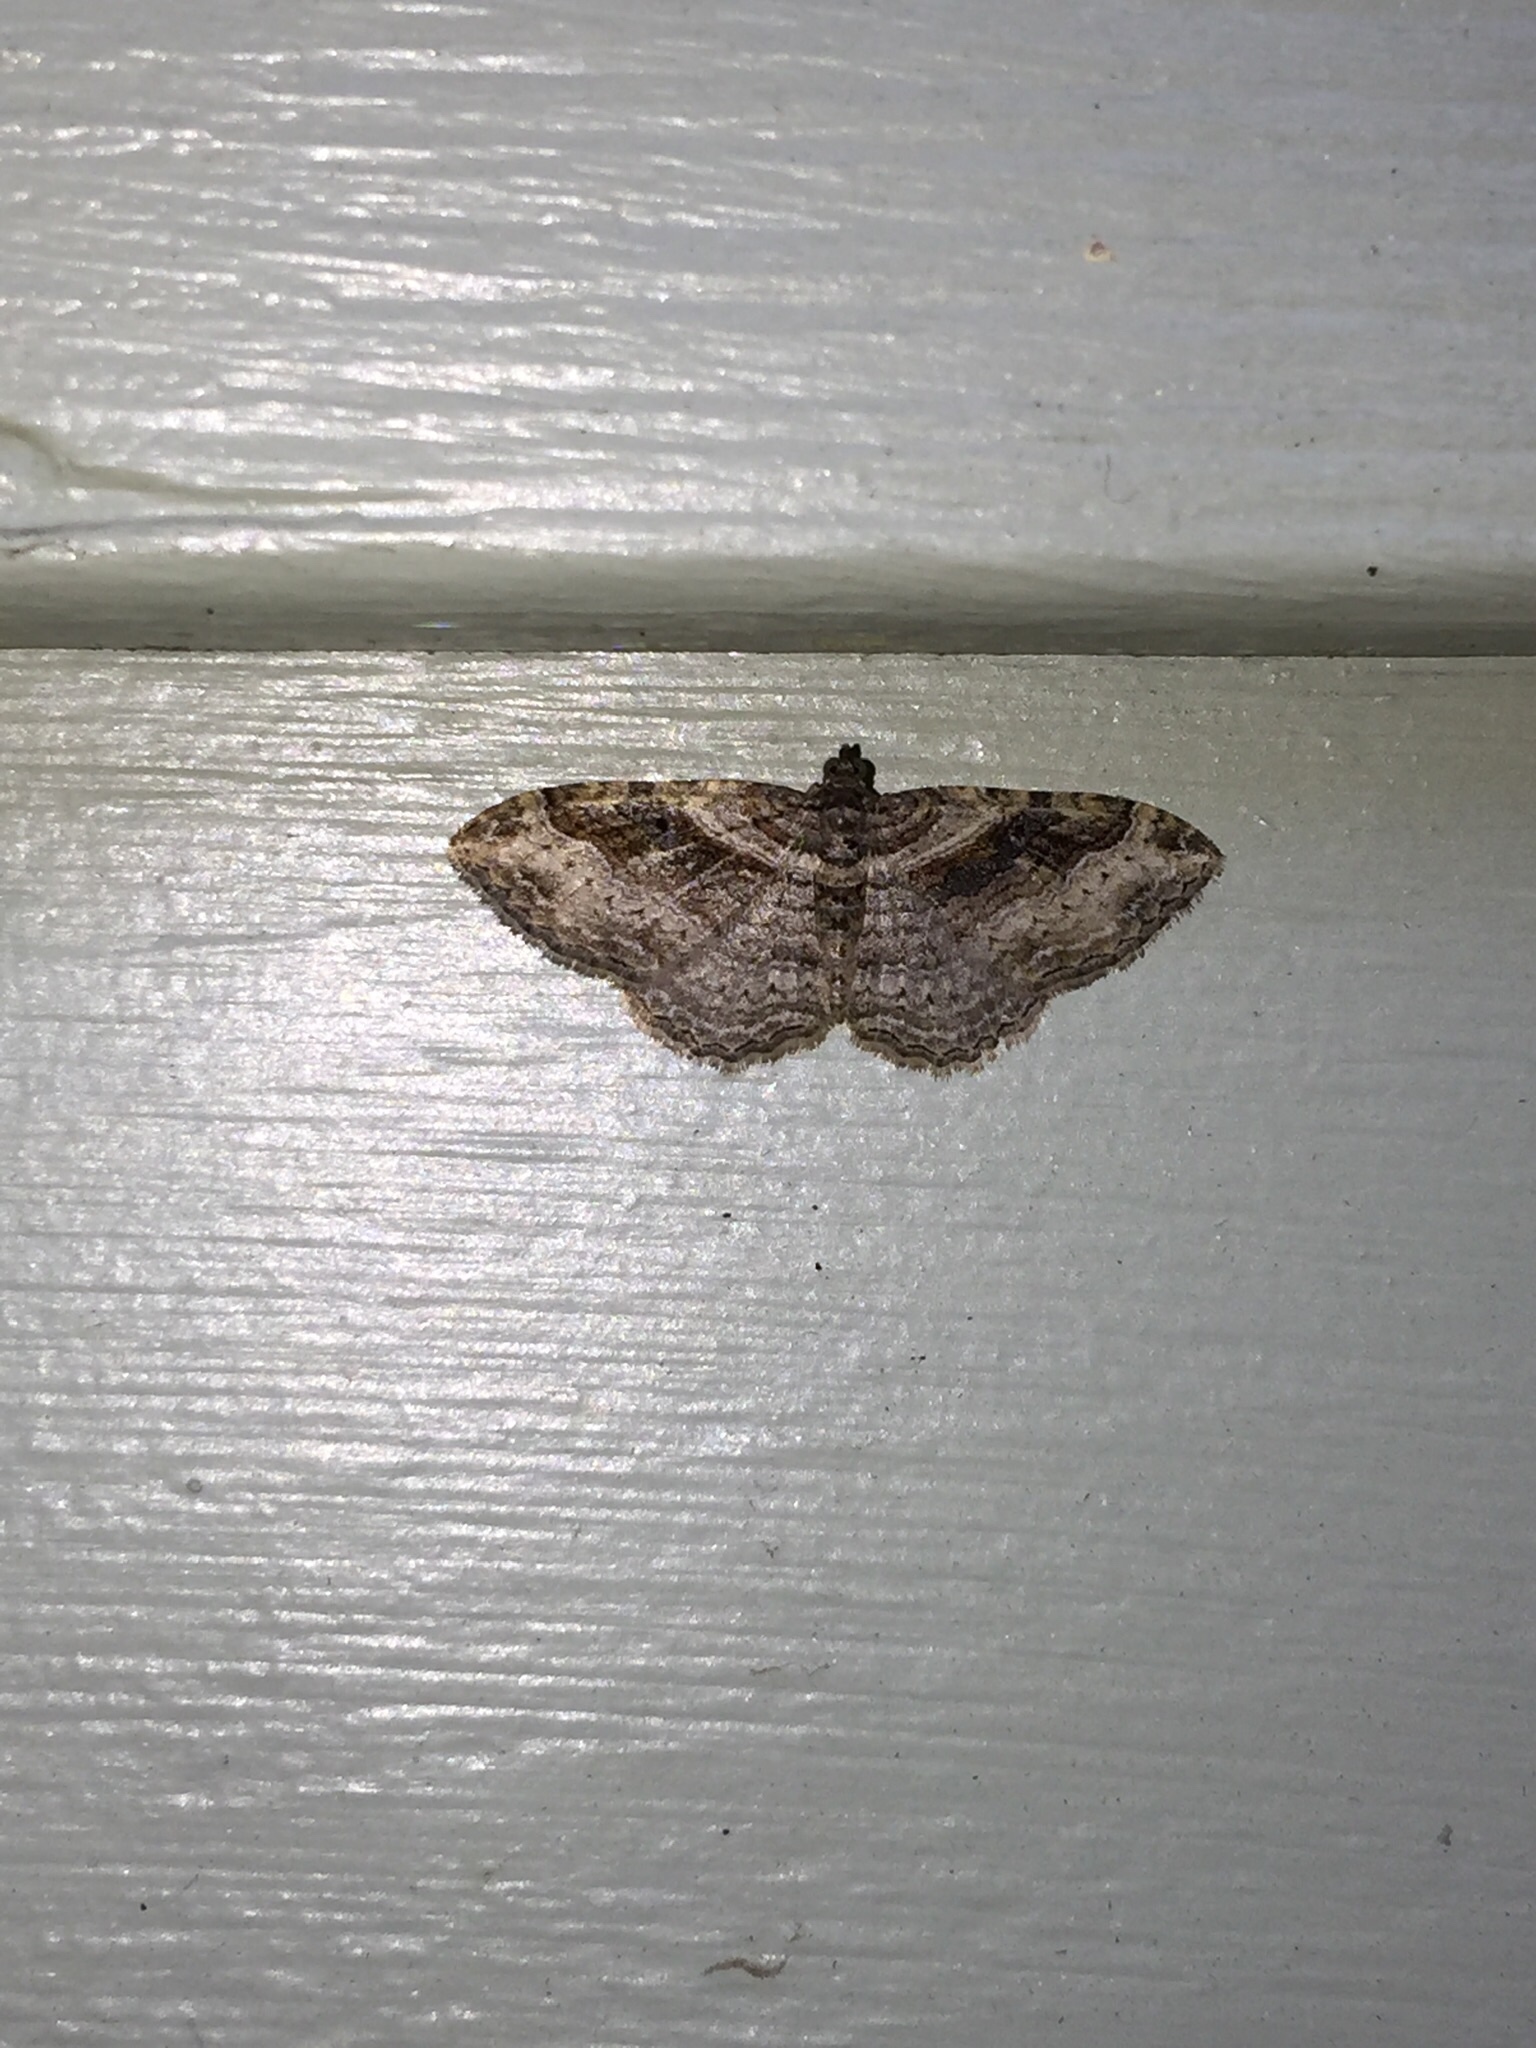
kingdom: Animalia
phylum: Arthropoda
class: Insecta
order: Lepidoptera
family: Geometridae
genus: Costaconvexa
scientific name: Costaconvexa centrostrigaria
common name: Bent-line carpet
